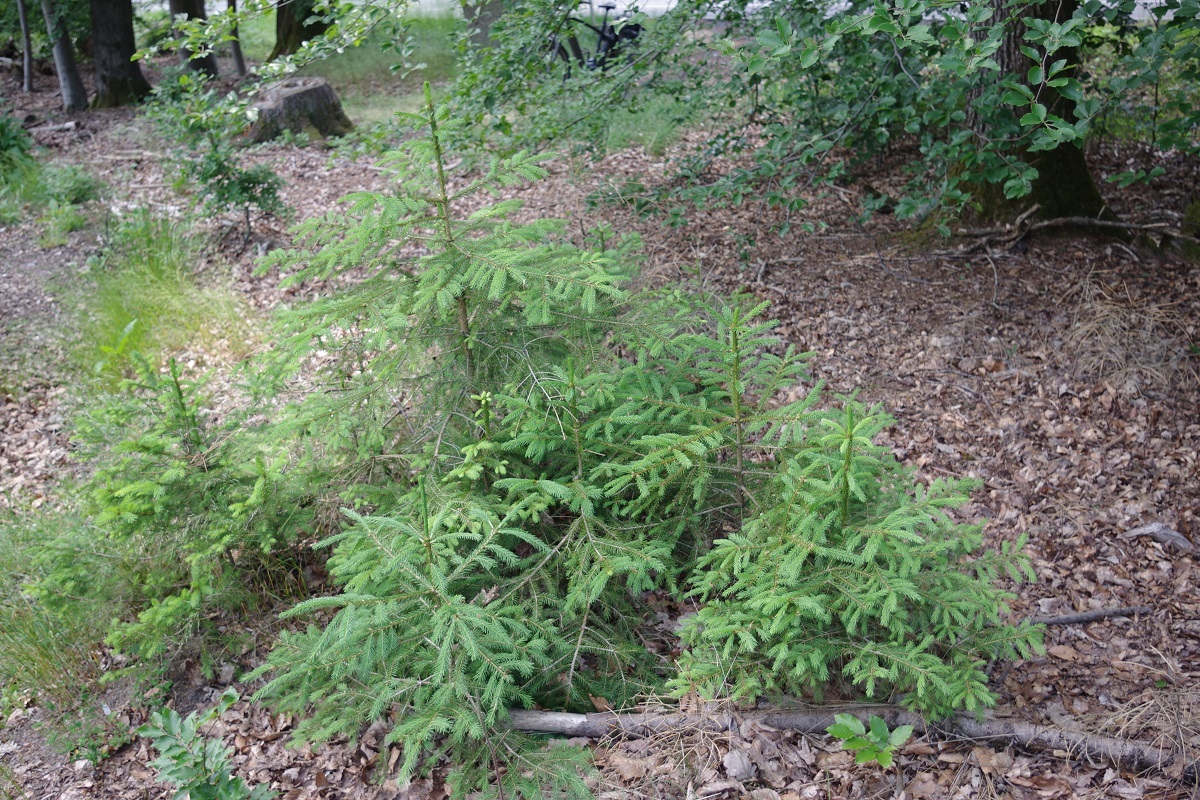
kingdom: Plantae
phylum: Tracheophyta
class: Pinopsida
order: Pinales
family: Pinaceae
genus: Picea
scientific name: Picea abies
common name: Norway spruce
